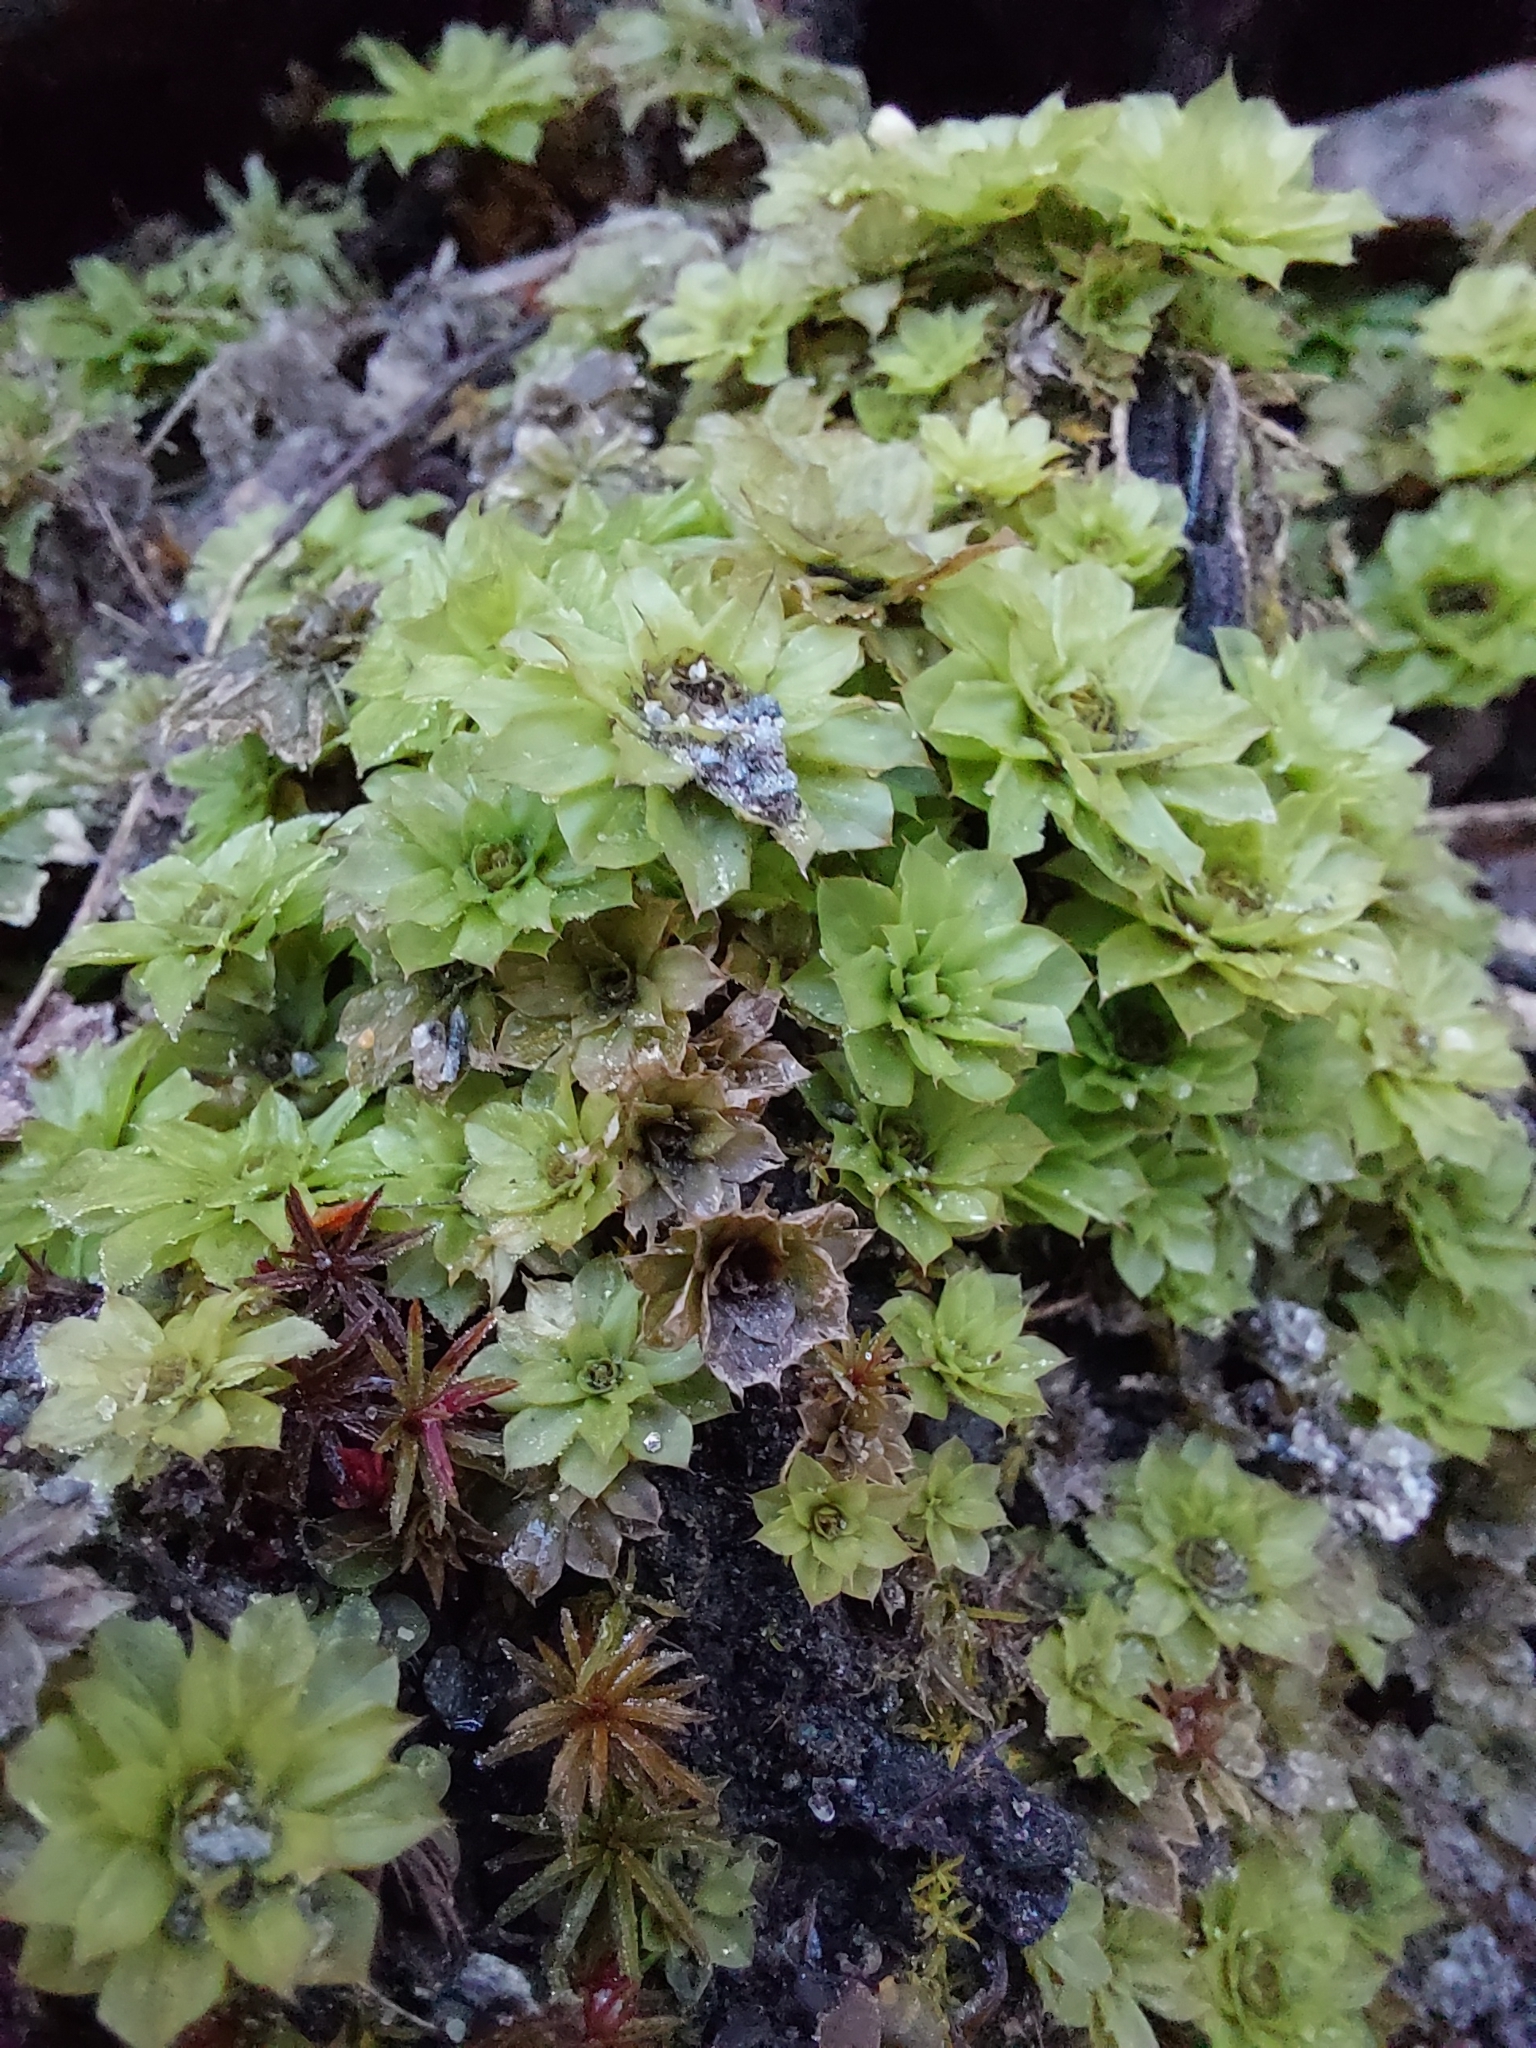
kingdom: Plantae
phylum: Bryophyta
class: Bryopsida
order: Bryales
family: Bryaceae
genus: Rhodobryum
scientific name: Rhodobryum ontariense
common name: Ontario rhodobryum moss
